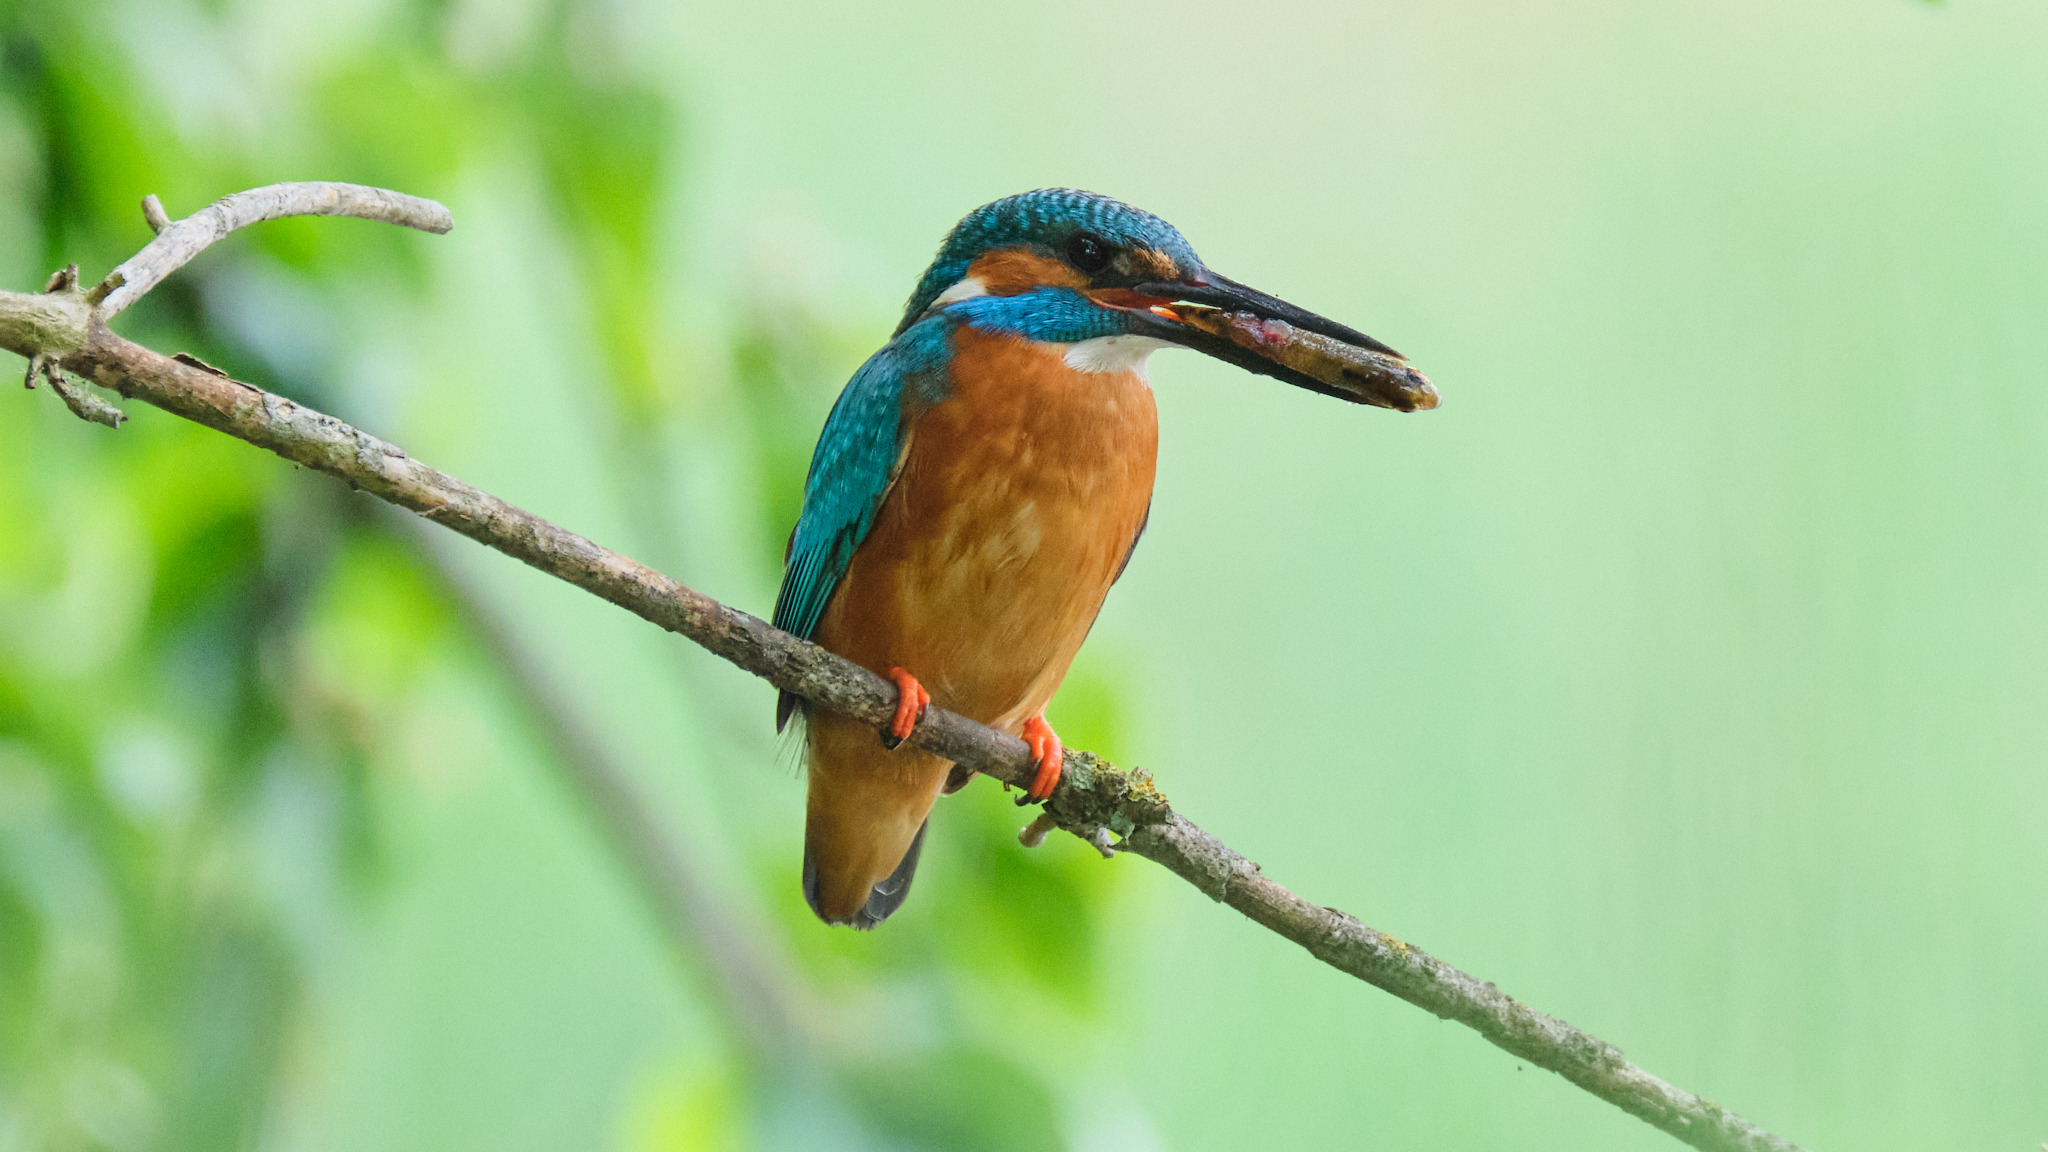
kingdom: Animalia
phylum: Chordata
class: Aves
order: Coraciiformes
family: Alcedinidae
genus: Alcedo
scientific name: Alcedo atthis
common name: Common kingfisher
